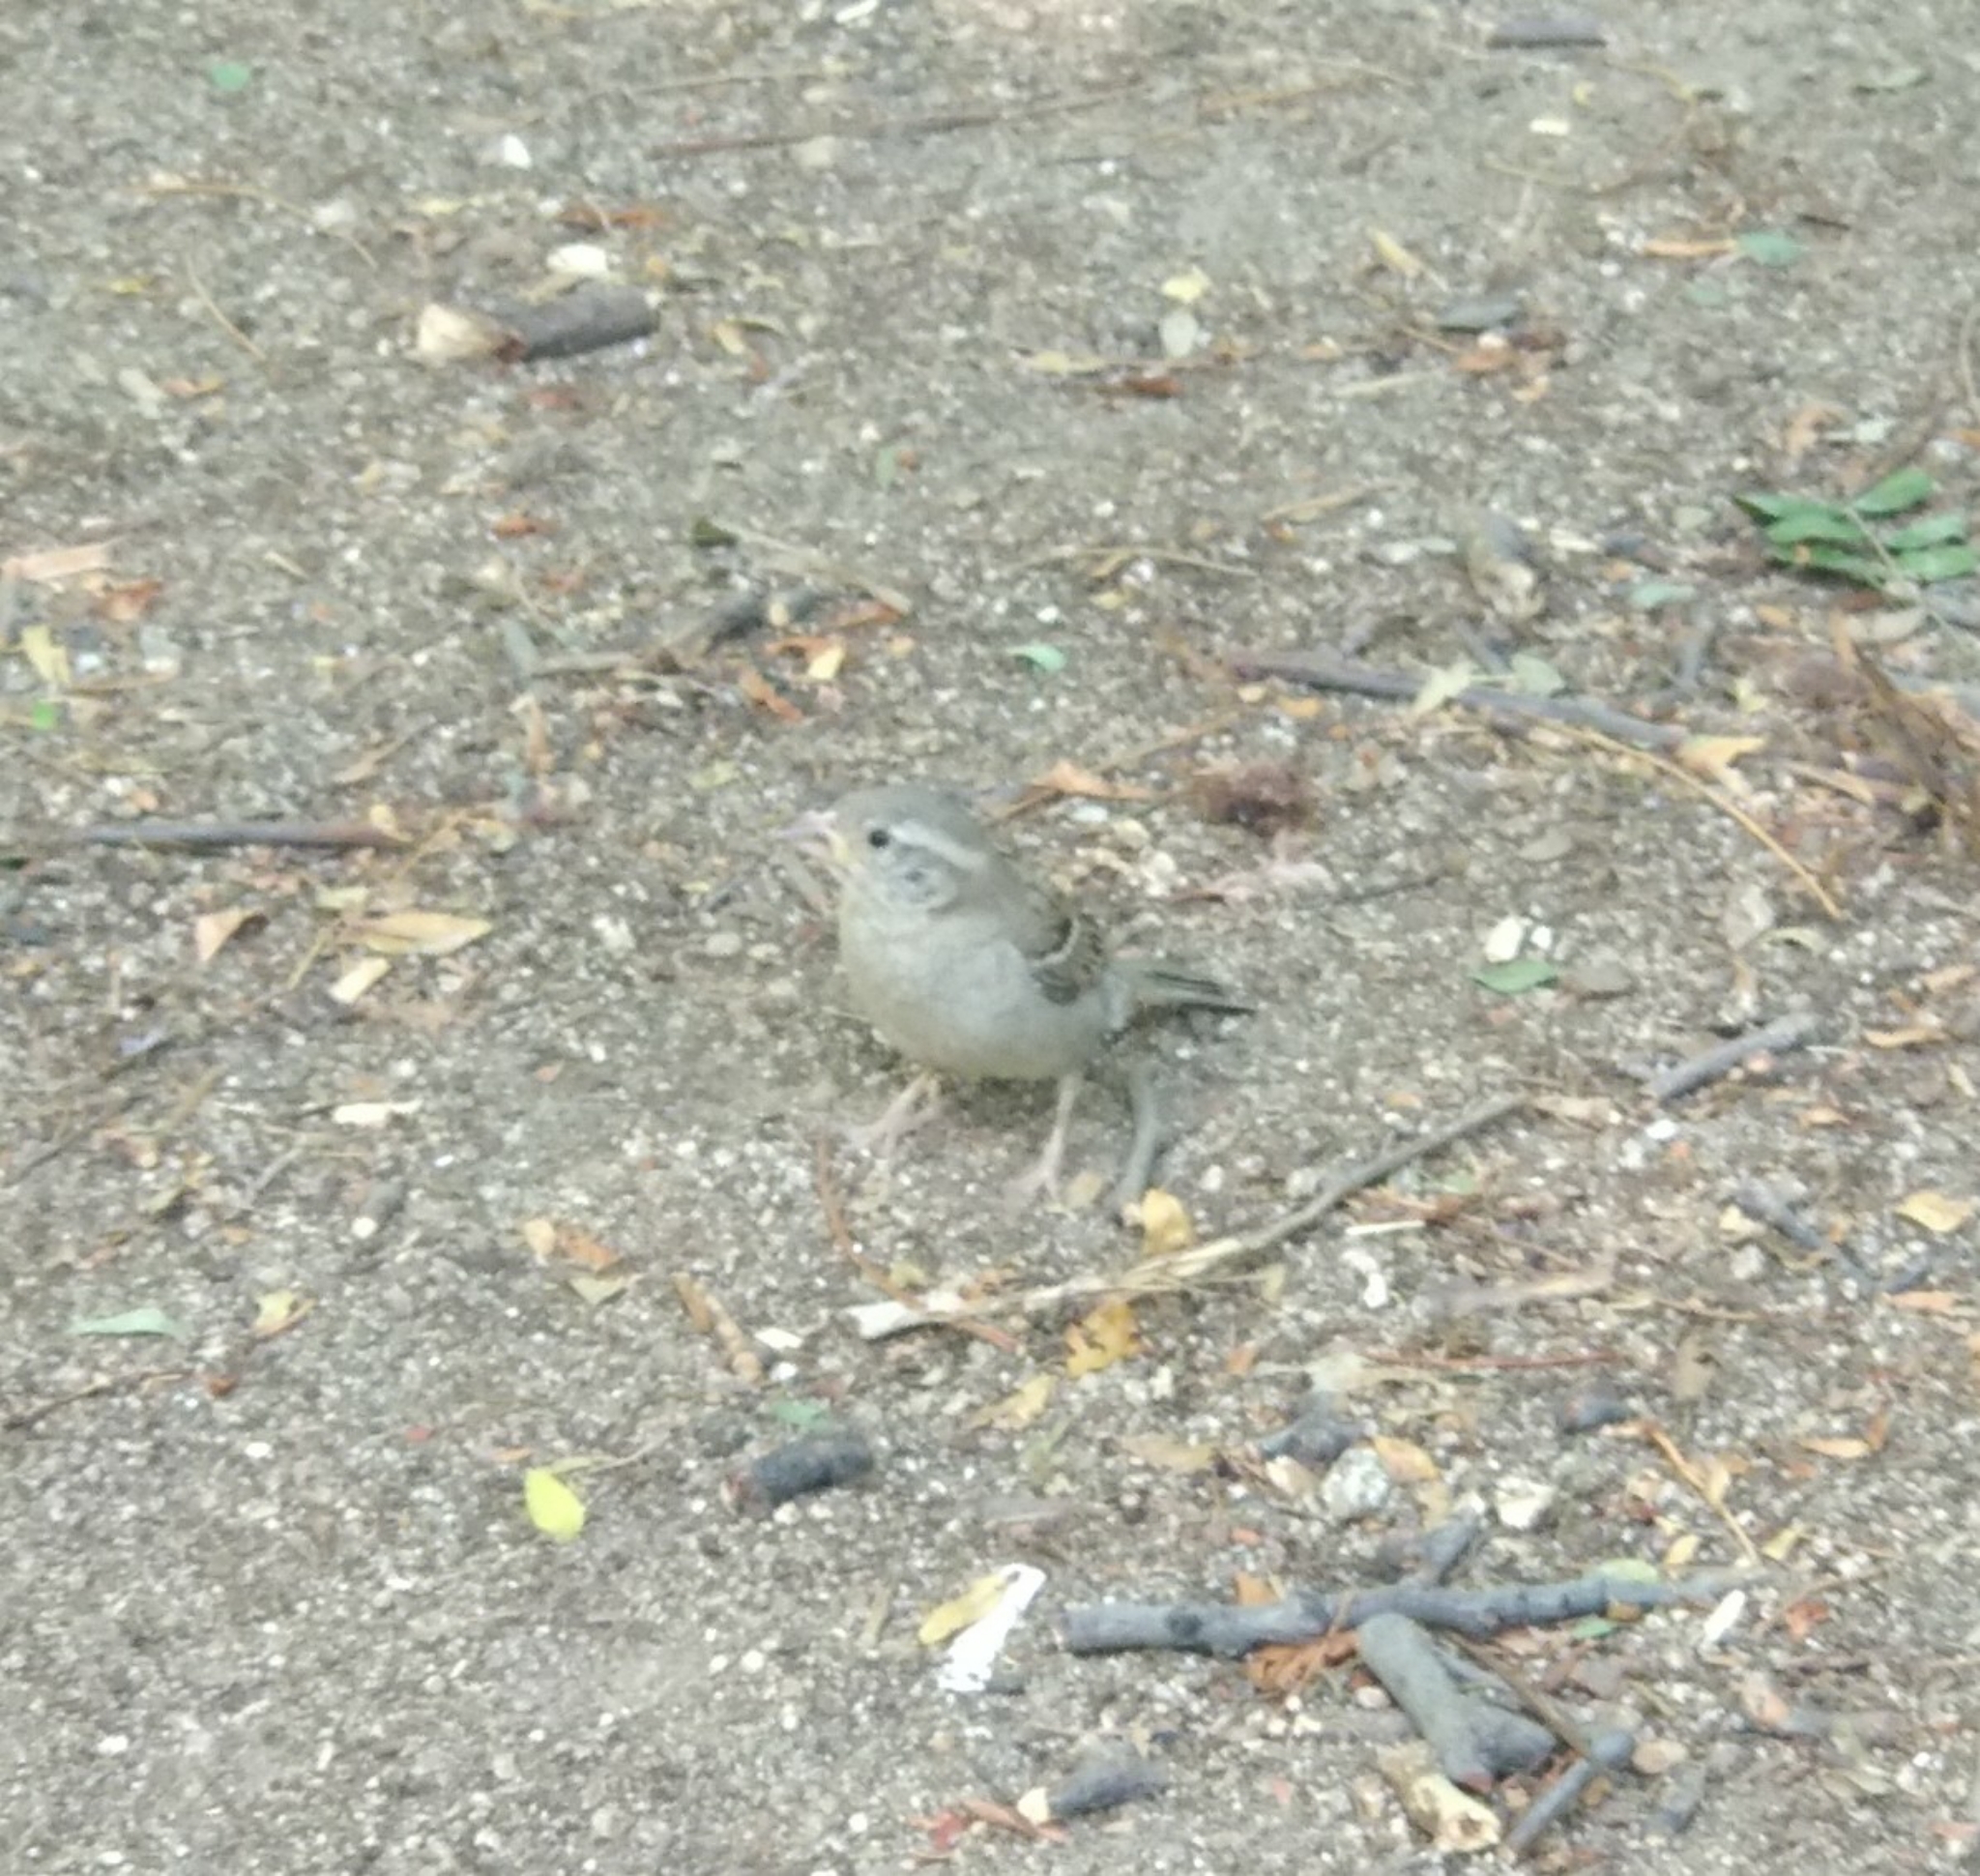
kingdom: Animalia
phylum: Chordata
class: Aves
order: Passeriformes
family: Passeridae
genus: Passer
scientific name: Passer domesticus
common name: House sparrow
